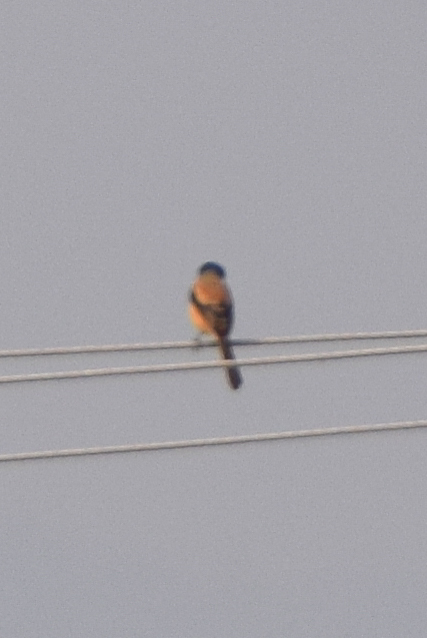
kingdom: Animalia
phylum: Chordata
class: Aves
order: Passeriformes
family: Laniidae
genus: Lanius
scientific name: Lanius schach
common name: Long-tailed shrike
